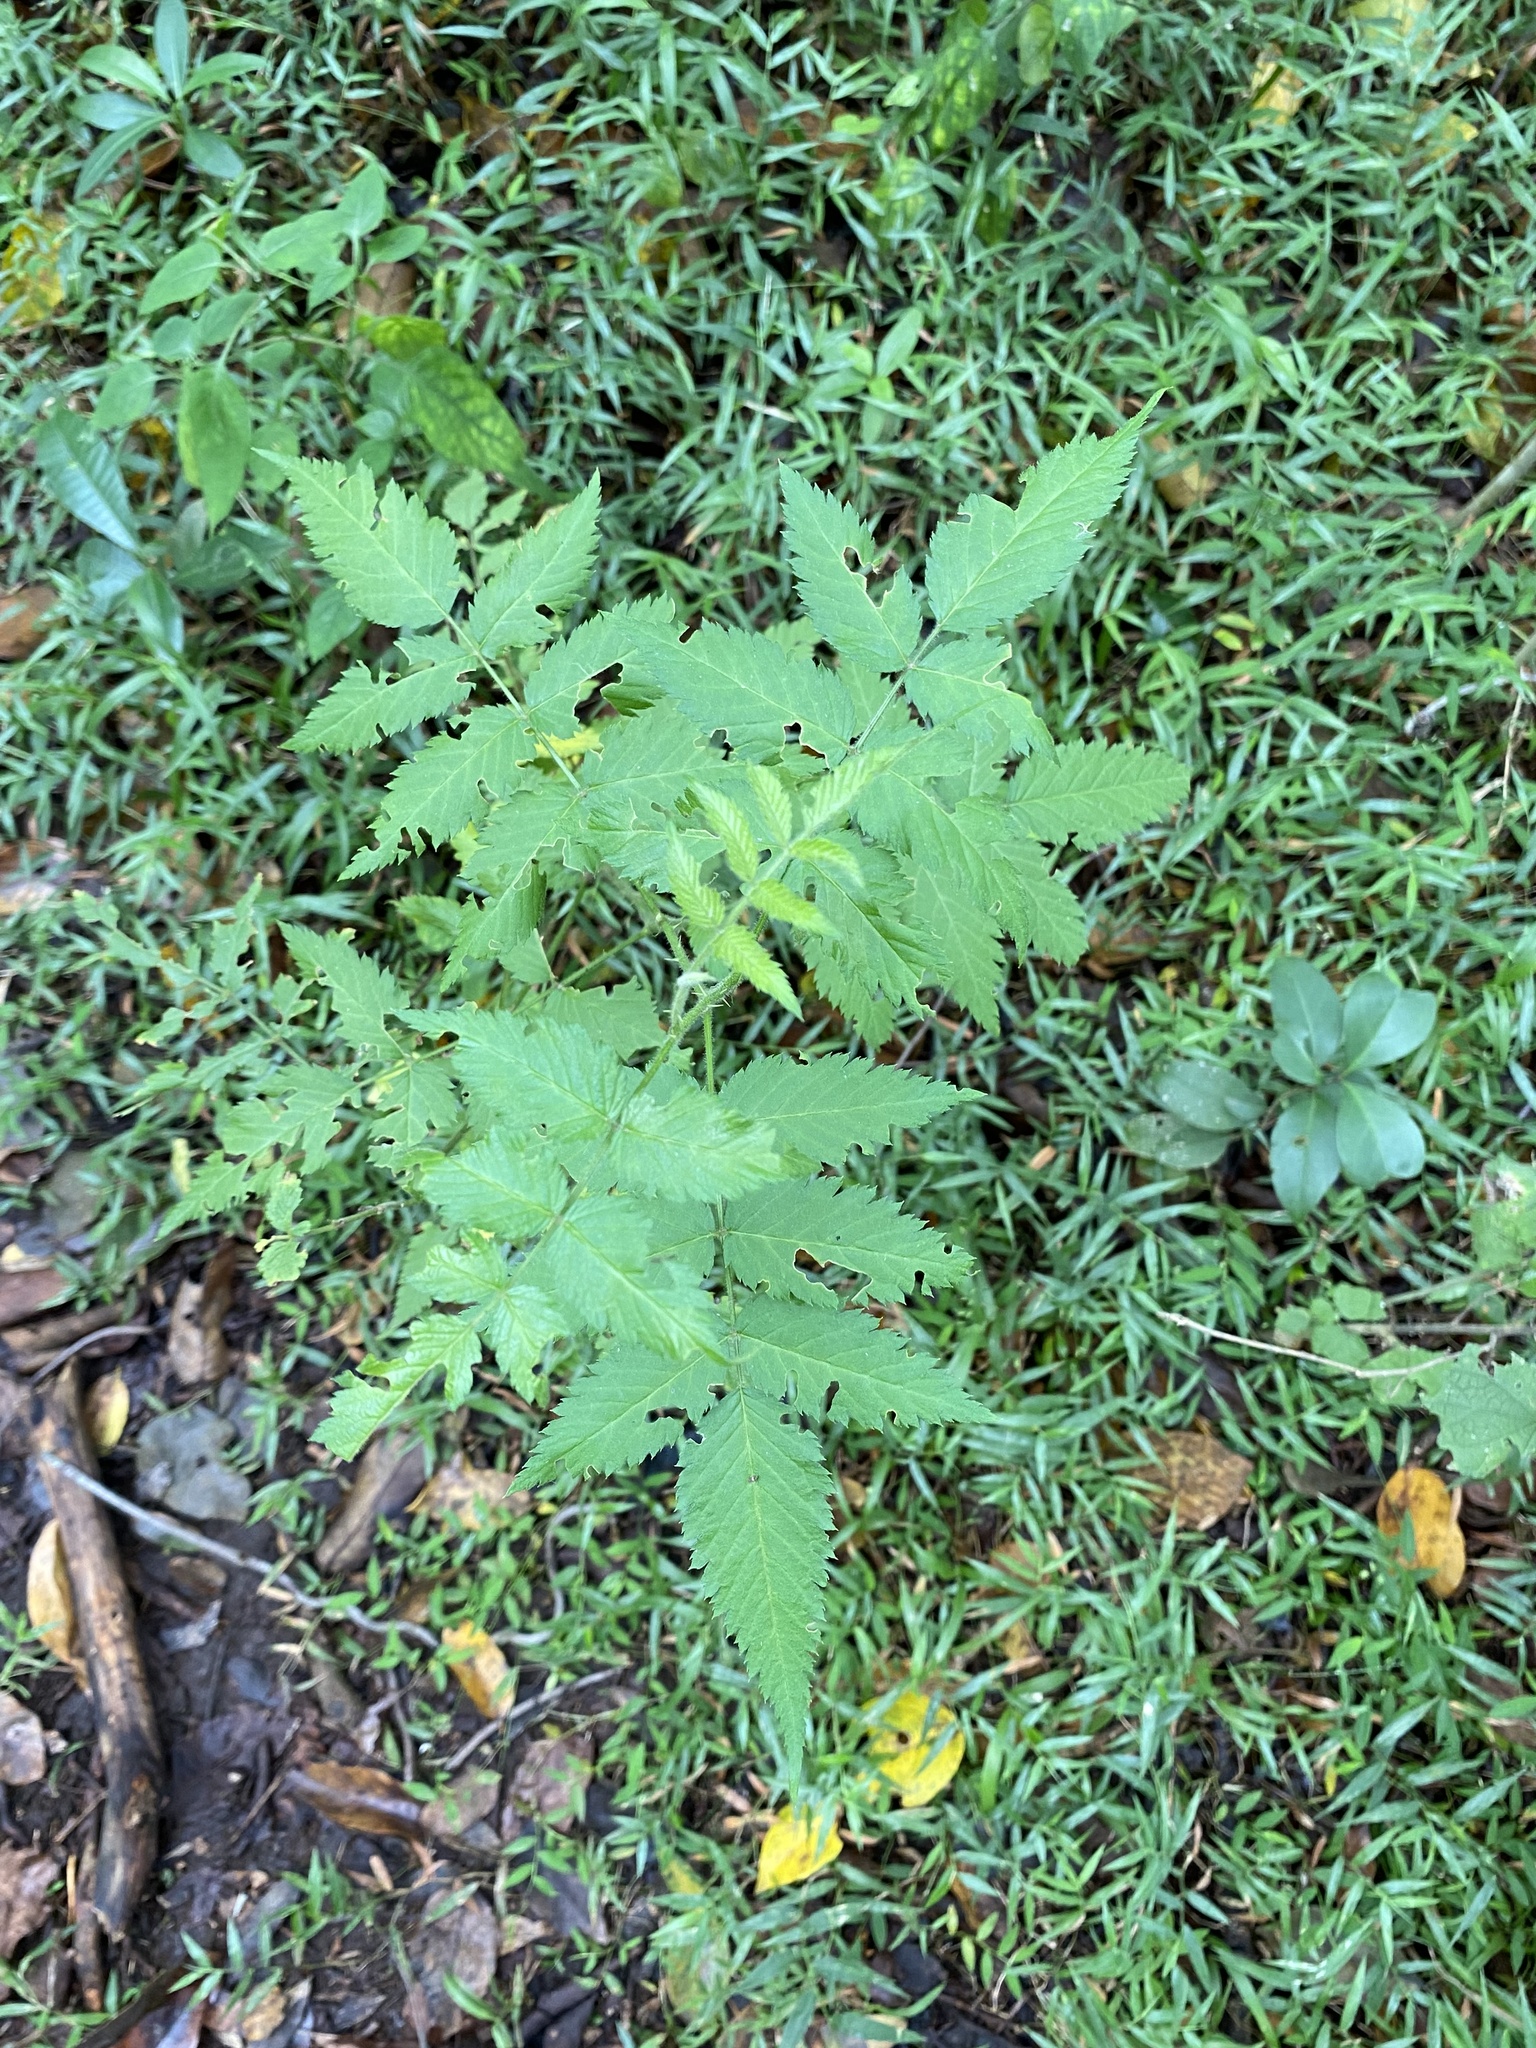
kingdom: Plantae
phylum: Tracheophyta
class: Magnoliopsida
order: Rosales
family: Rosaceae
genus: Rubus
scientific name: Rubus rosifolius
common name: Roseleaf raspberry
